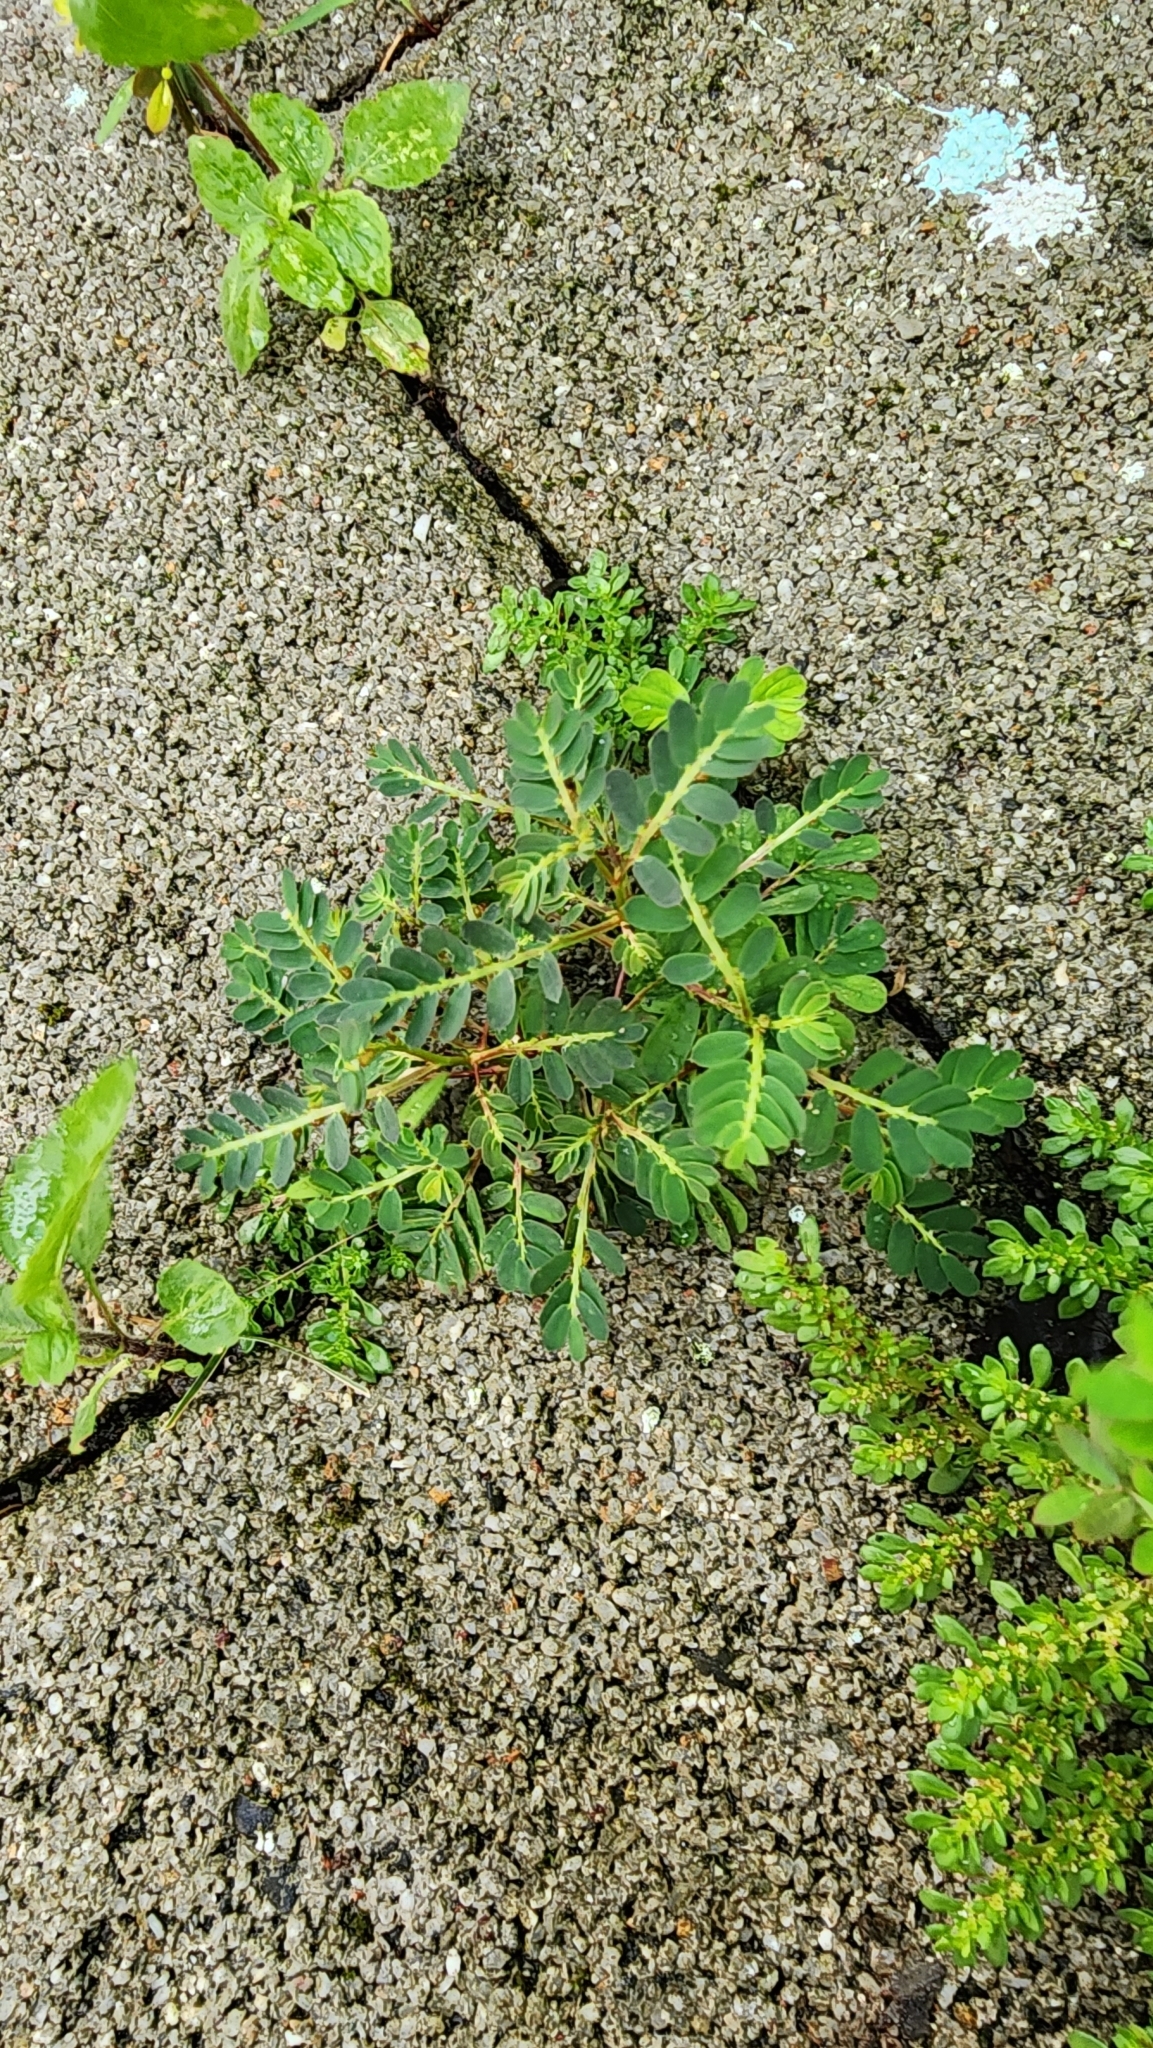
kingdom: Plantae
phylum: Tracheophyta
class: Magnoliopsida
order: Malpighiales
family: Phyllanthaceae
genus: Phyllanthus
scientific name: Phyllanthus urinaria
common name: Chamber bitter
